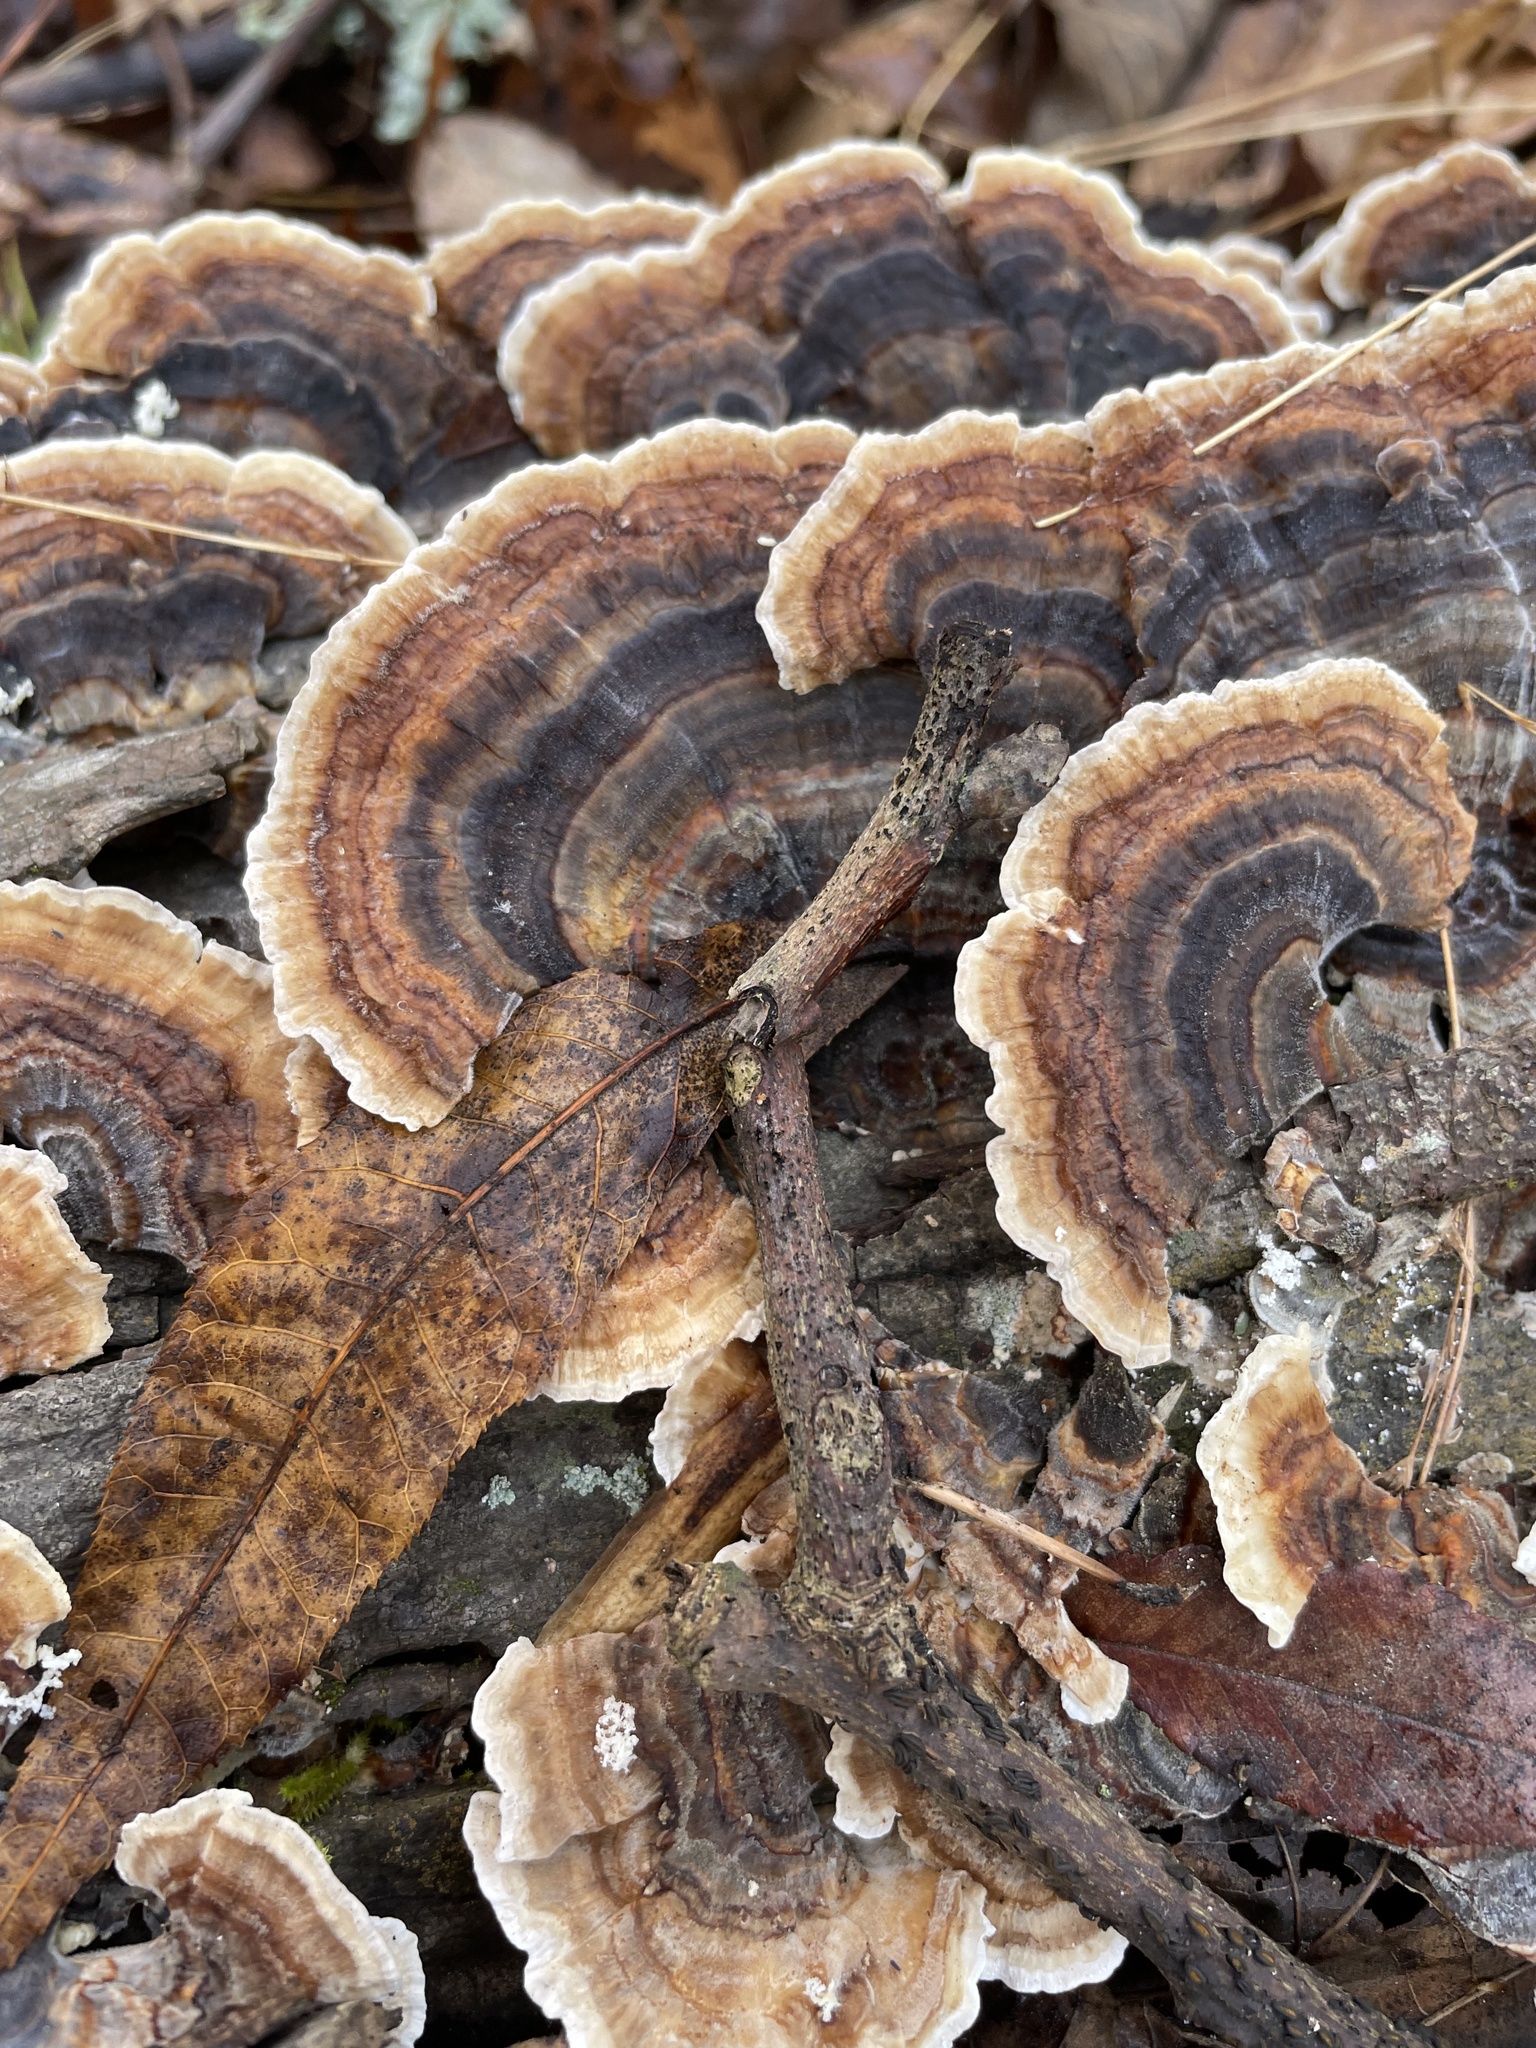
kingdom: Fungi
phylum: Basidiomycota
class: Agaricomycetes
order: Polyporales
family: Polyporaceae
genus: Trametes
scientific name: Trametes versicolor
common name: Turkeytail
